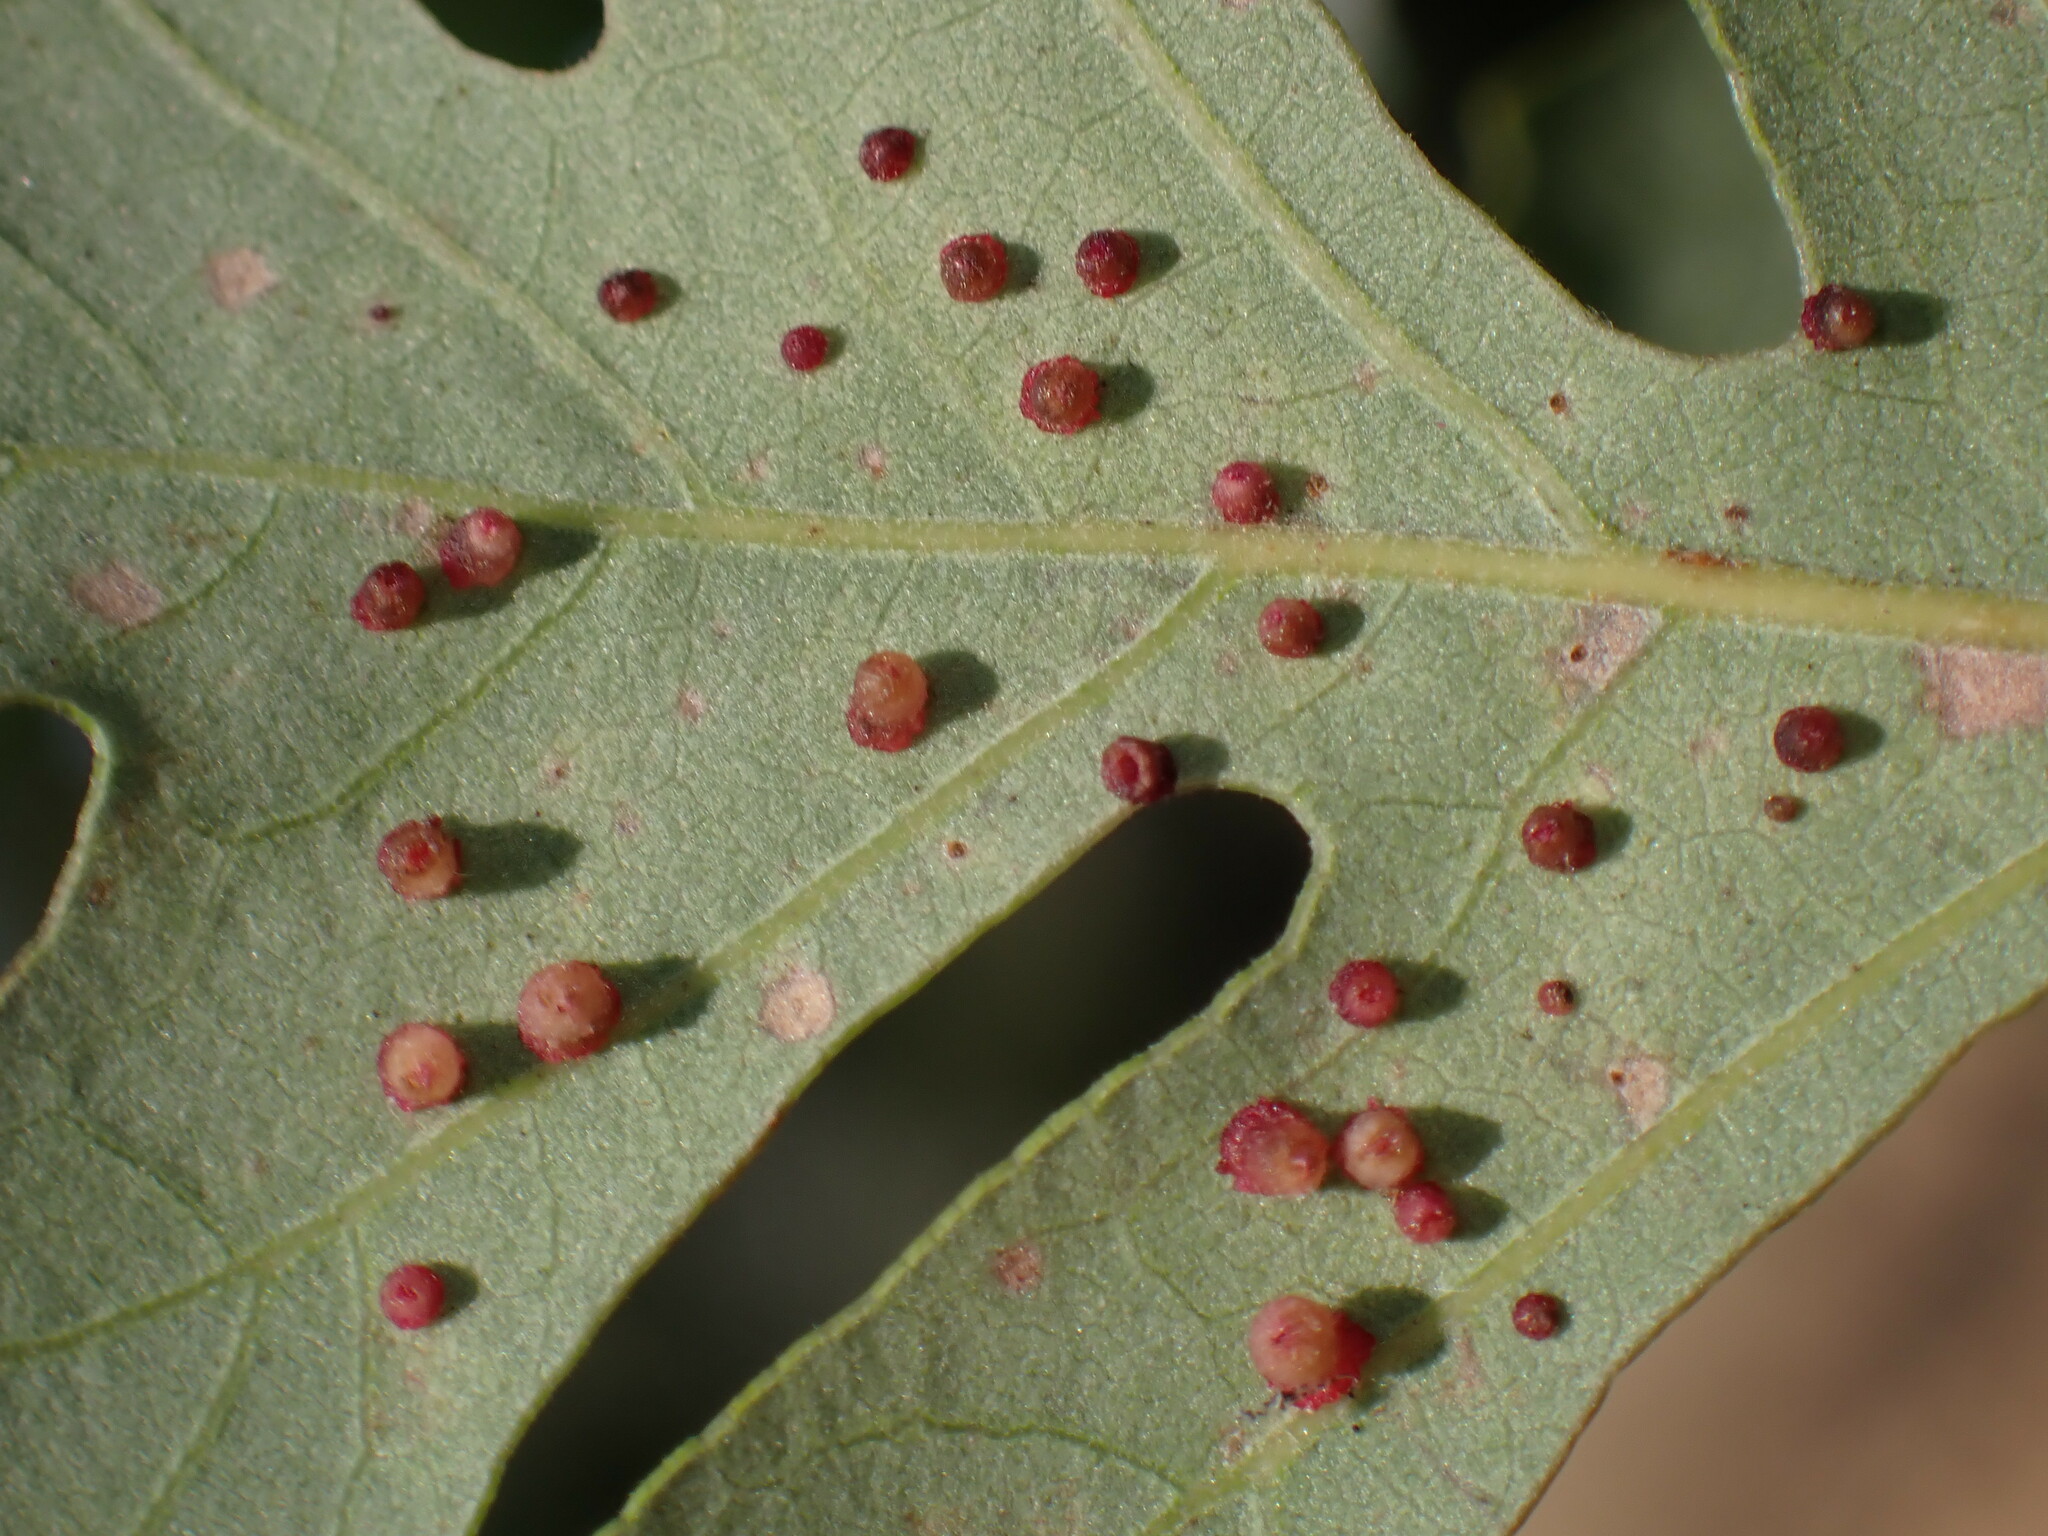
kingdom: Animalia
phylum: Arthropoda
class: Insecta
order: Hymenoptera
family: Cynipidae
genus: Andricus
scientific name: Andricus
